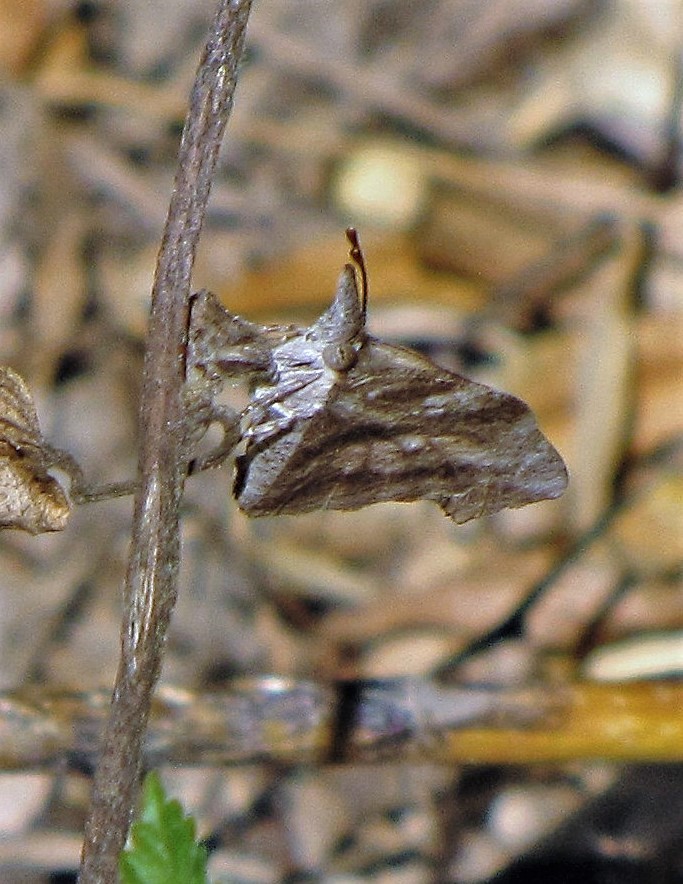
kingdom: Animalia
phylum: Arthropoda
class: Insecta
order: Lepidoptera
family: Nymphalidae
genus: Libytheana
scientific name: Libytheana carinenta
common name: American snout
